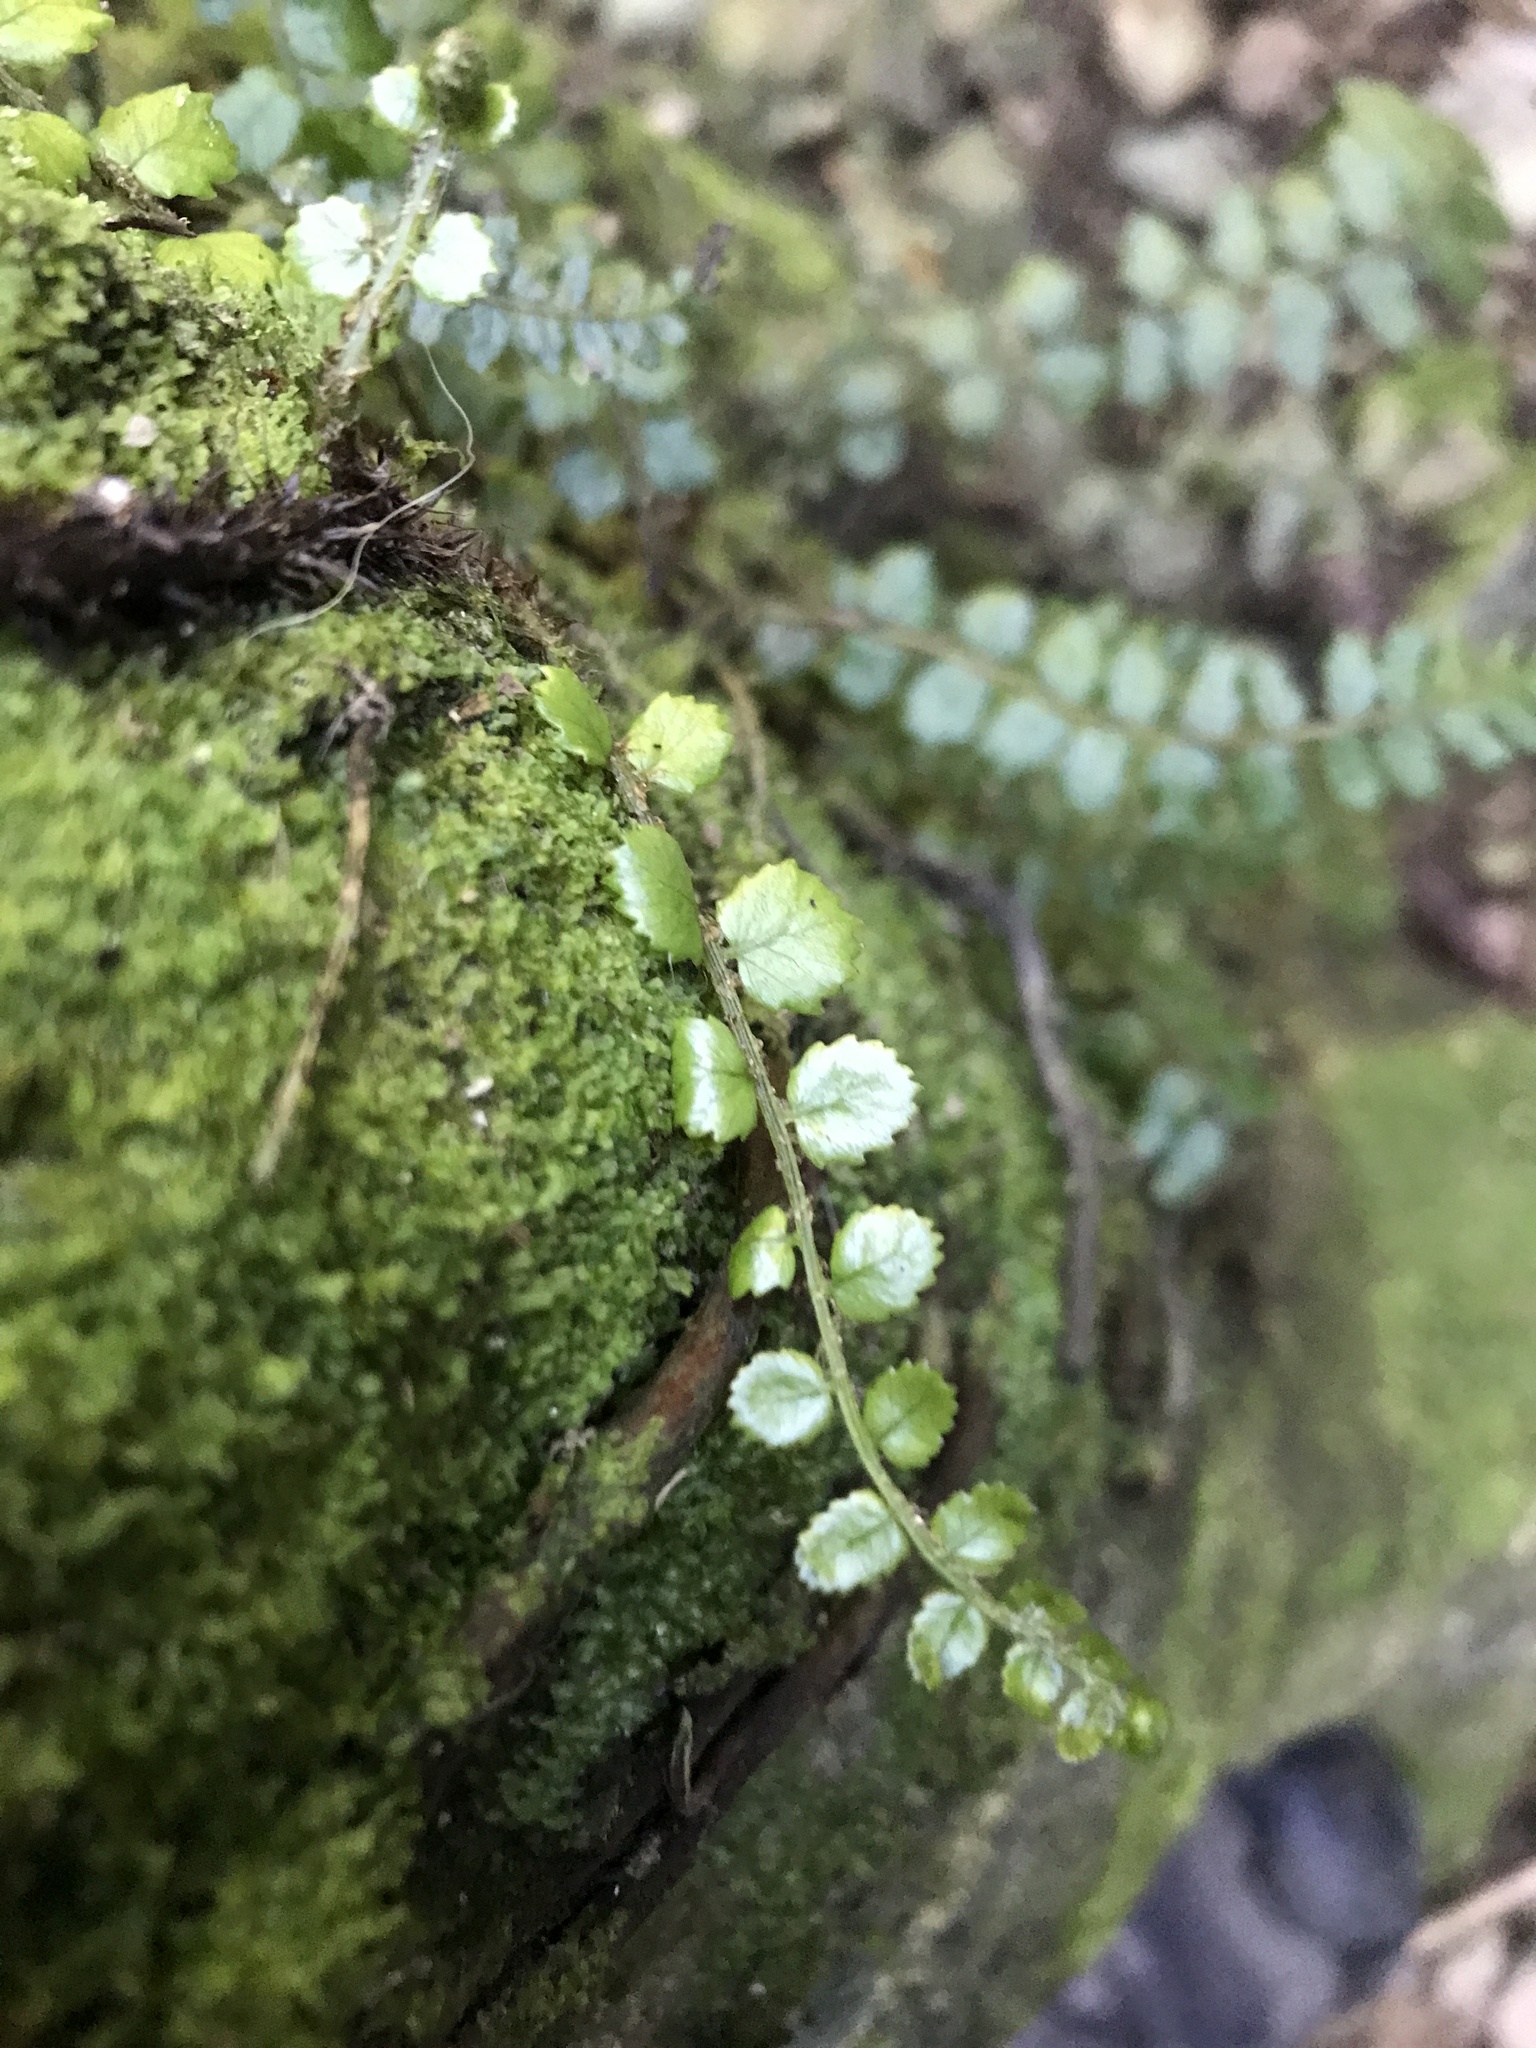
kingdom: Plantae
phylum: Tracheophyta
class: Polypodiopsida
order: Polypodiales
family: Blechnaceae
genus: Icarus
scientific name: Icarus filiformis
